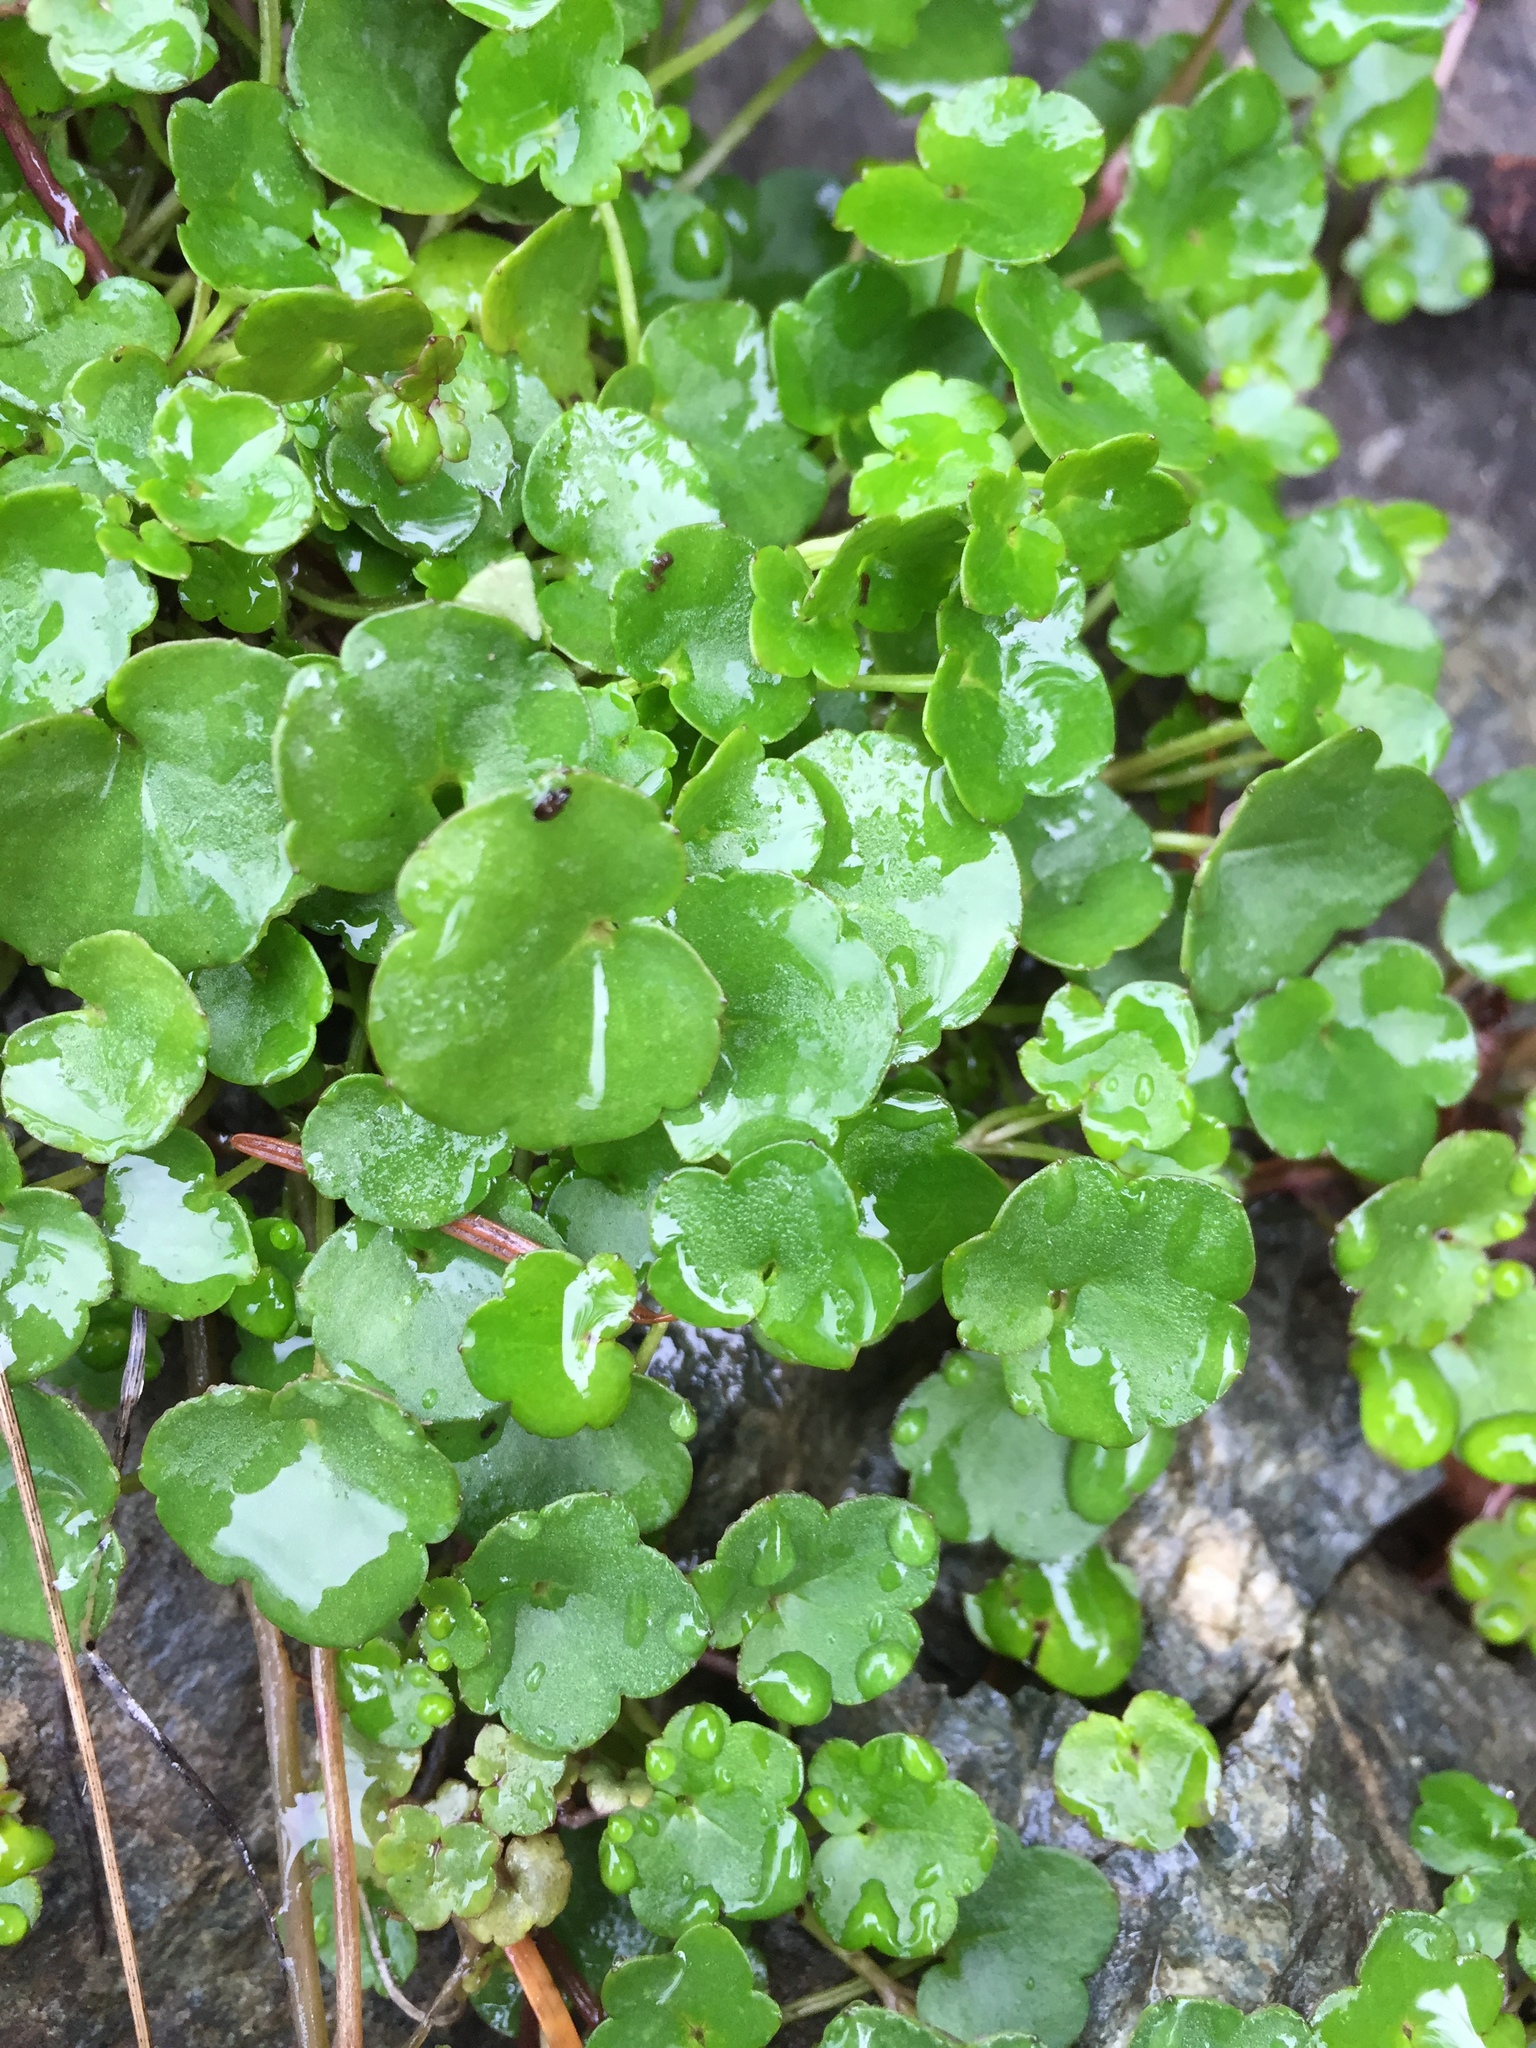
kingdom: Plantae
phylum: Tracheophyta
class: Magnoliopsida
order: Lamiales
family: Plantaginaceae
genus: Cymbalaria
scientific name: Cymbalaria muralis
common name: Ivy-leaved toadflax
